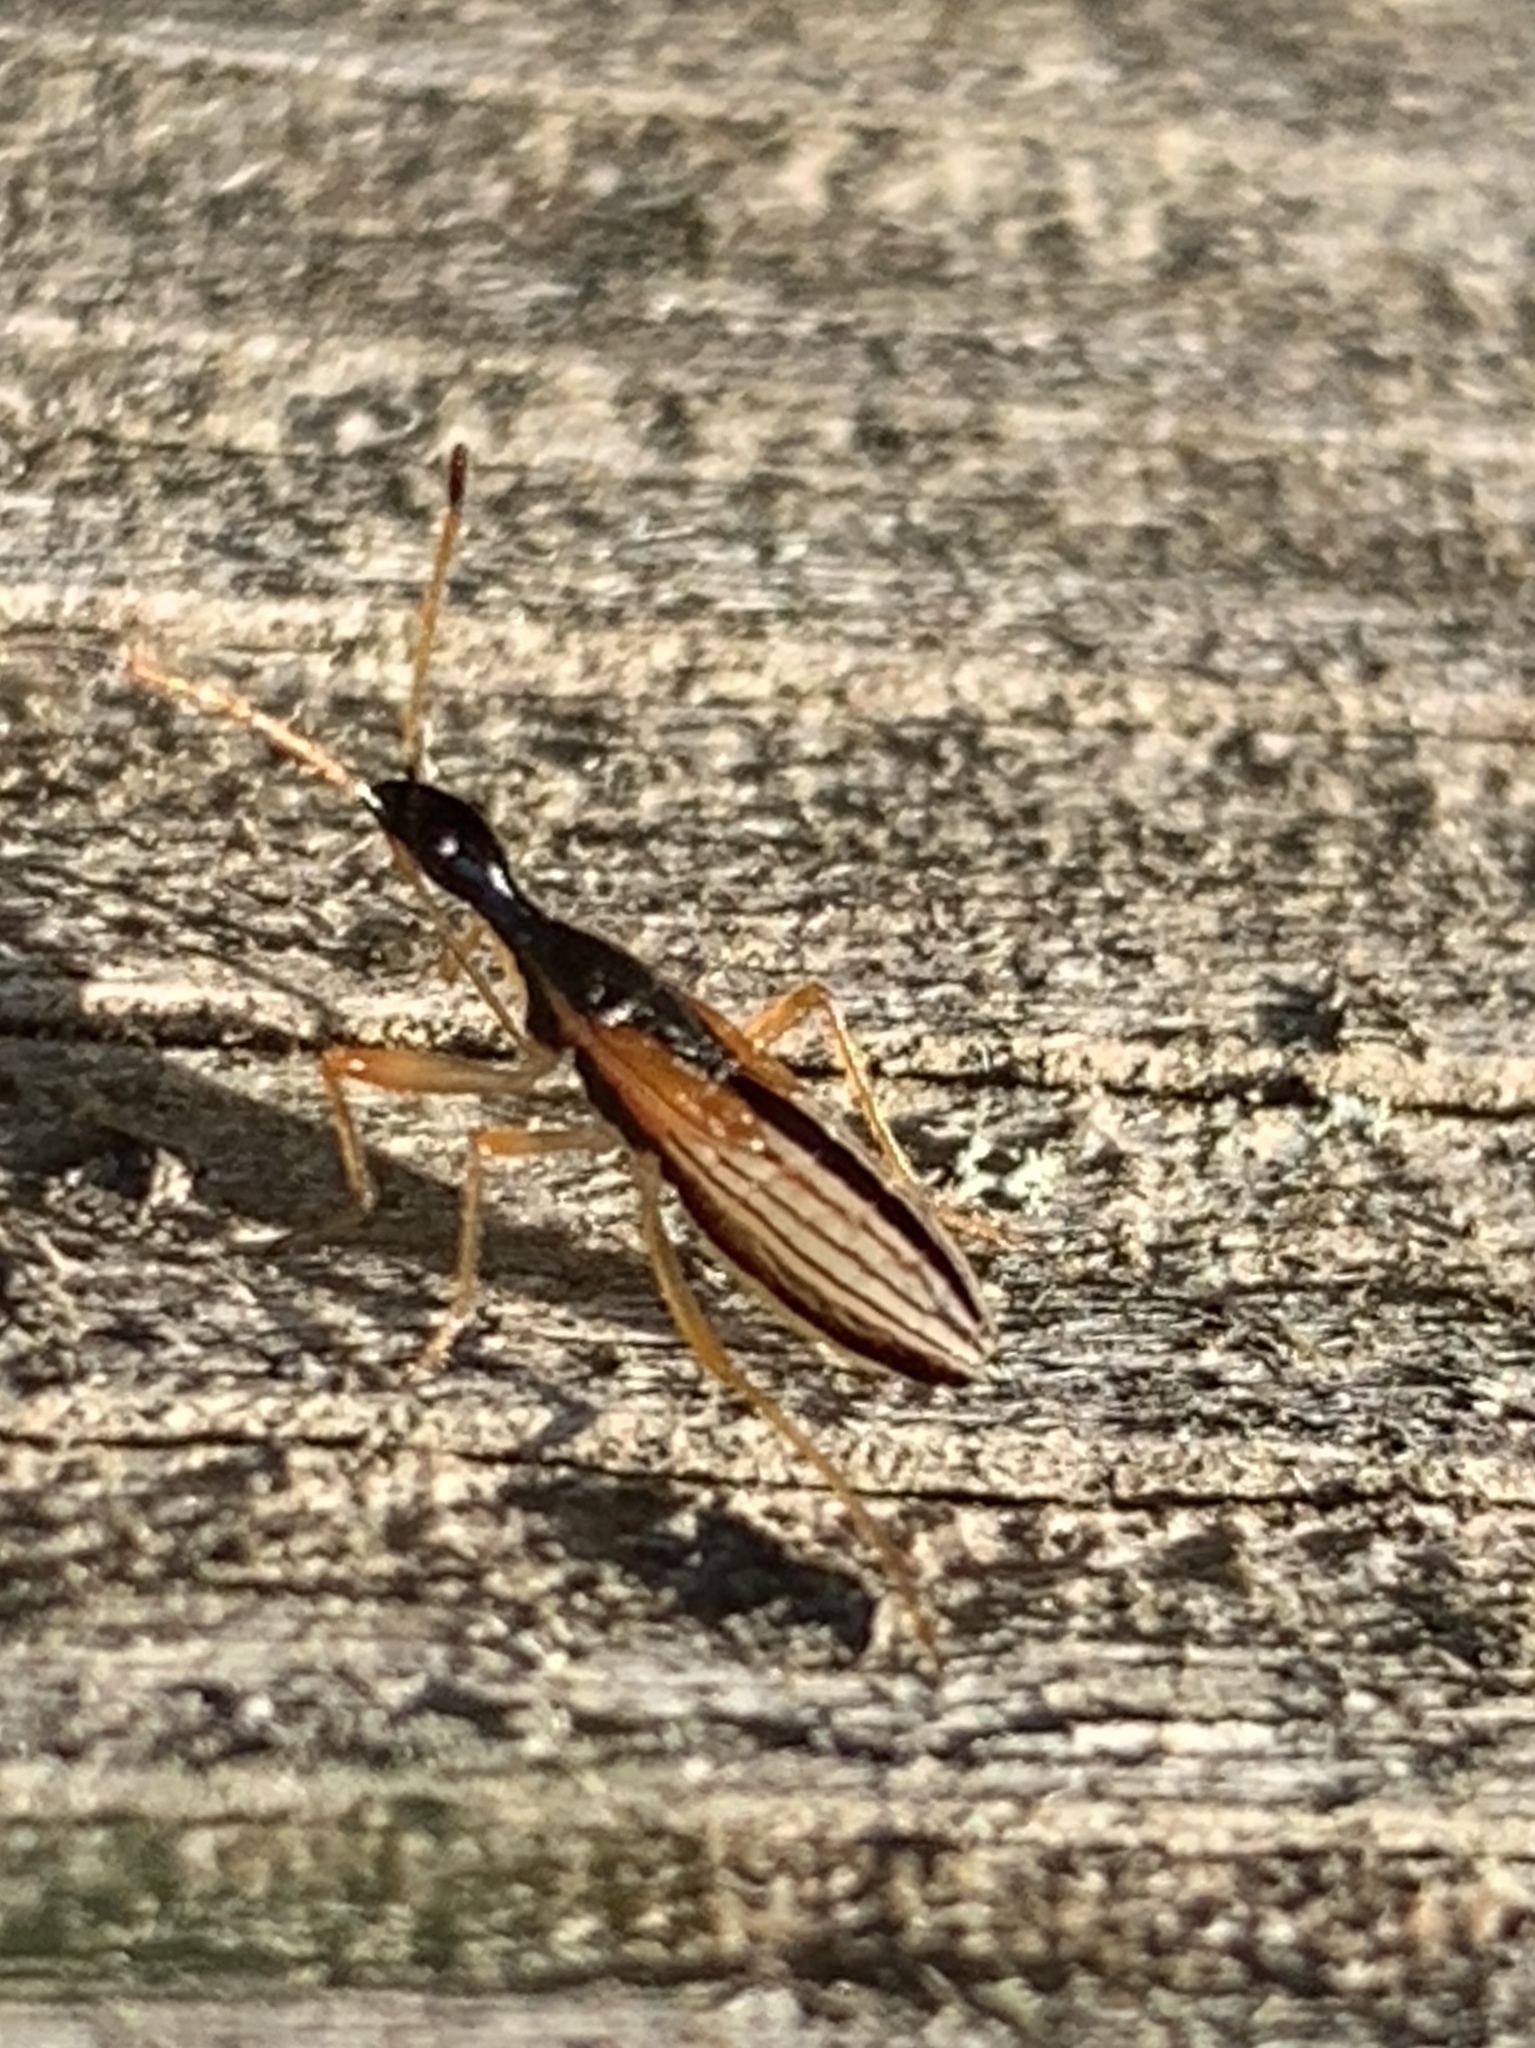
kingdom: Animalia
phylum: Arthropoda
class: Insecta
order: Hemiptera
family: Rhyparochromidae
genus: Myodocha
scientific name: Myodocha serripes
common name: Long-necked seed bug
